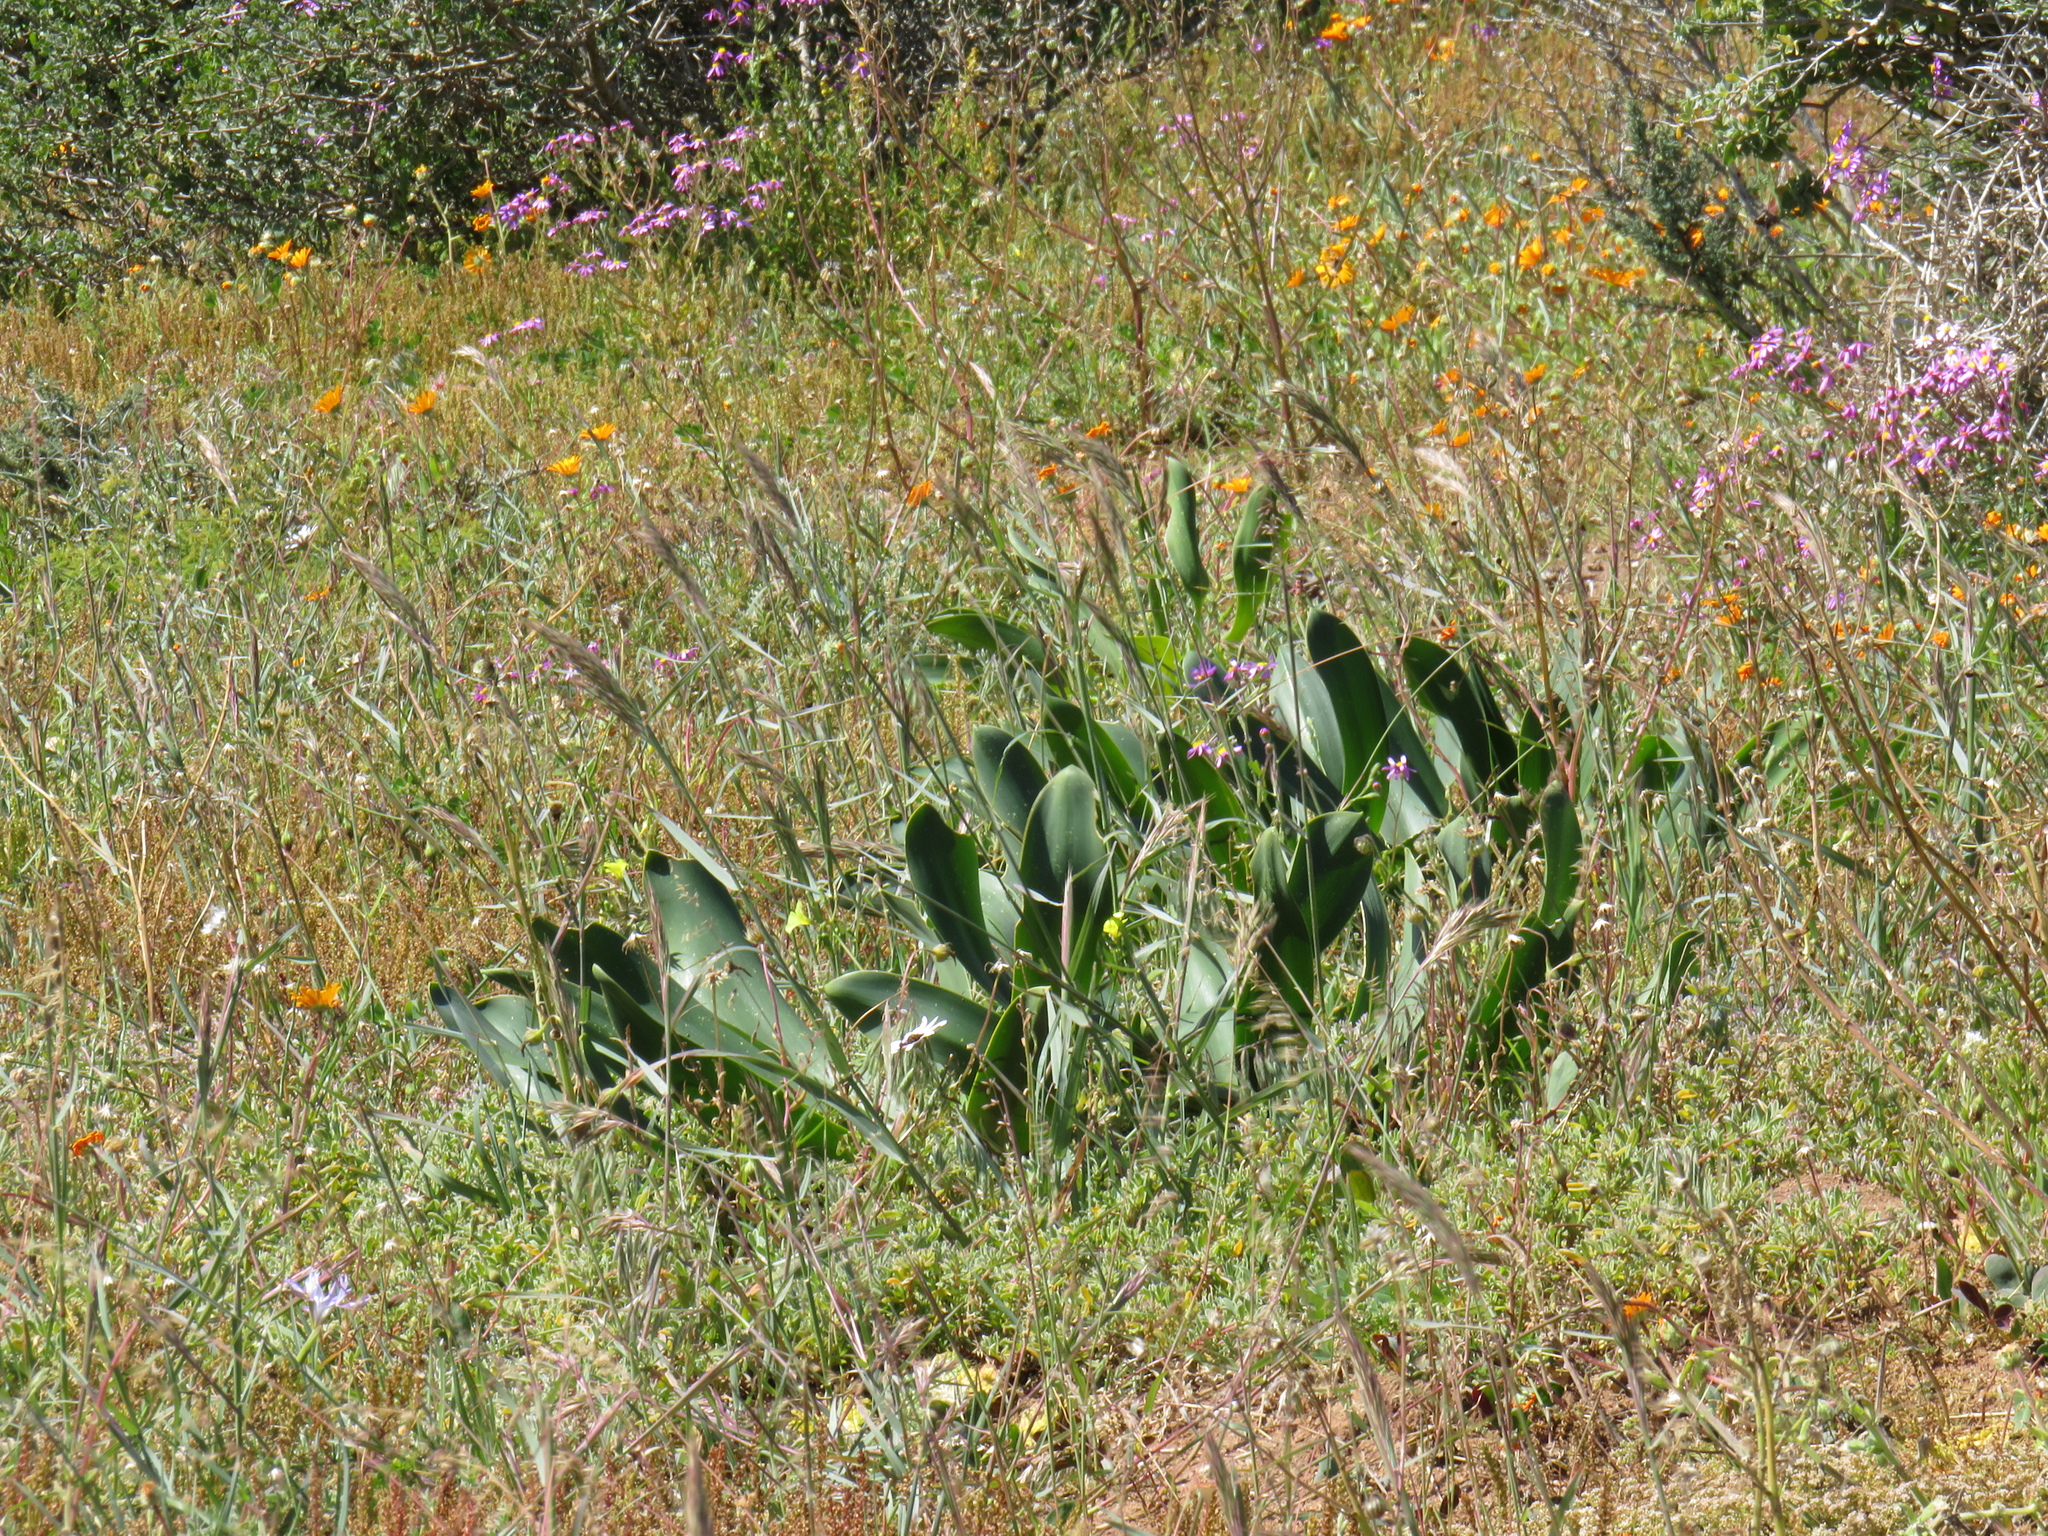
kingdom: Plantae
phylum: Tracheophyta
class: Liliopsida
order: Asparagales
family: Asparagaceae
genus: Drimia
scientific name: Drimia capensis
